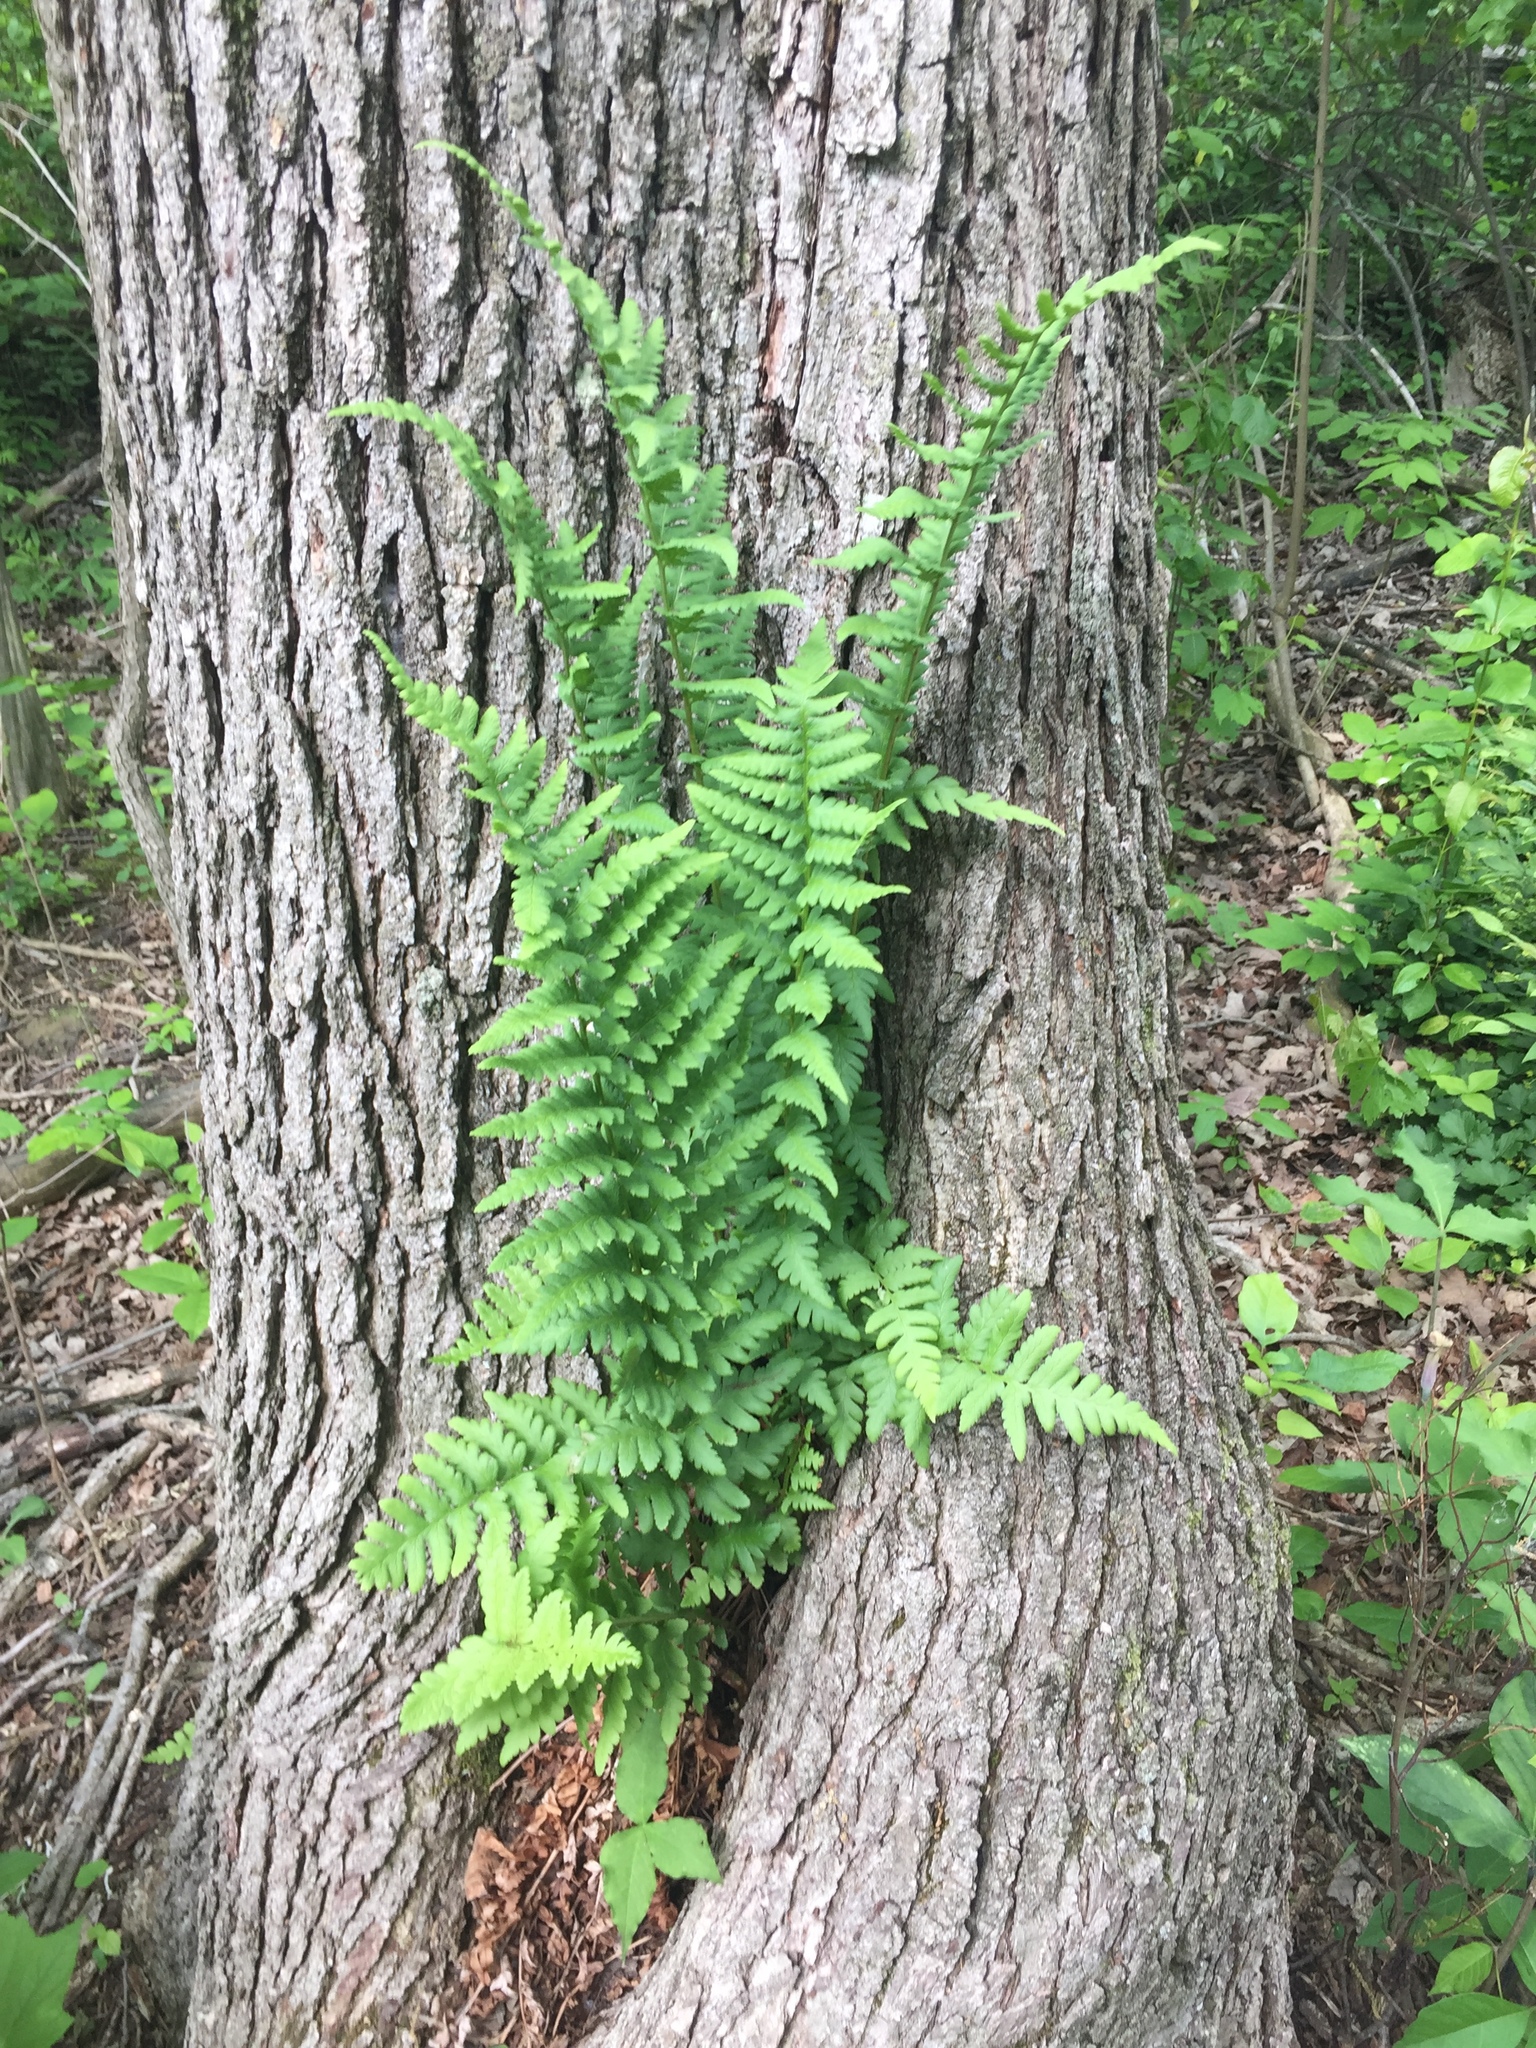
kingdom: Plantae
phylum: Tracheophyta
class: Polypodiopsida
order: Polypodiales
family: Dryopteridaceae
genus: Dryopteris
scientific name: Dryopteris cristata
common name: Crested wood fern
